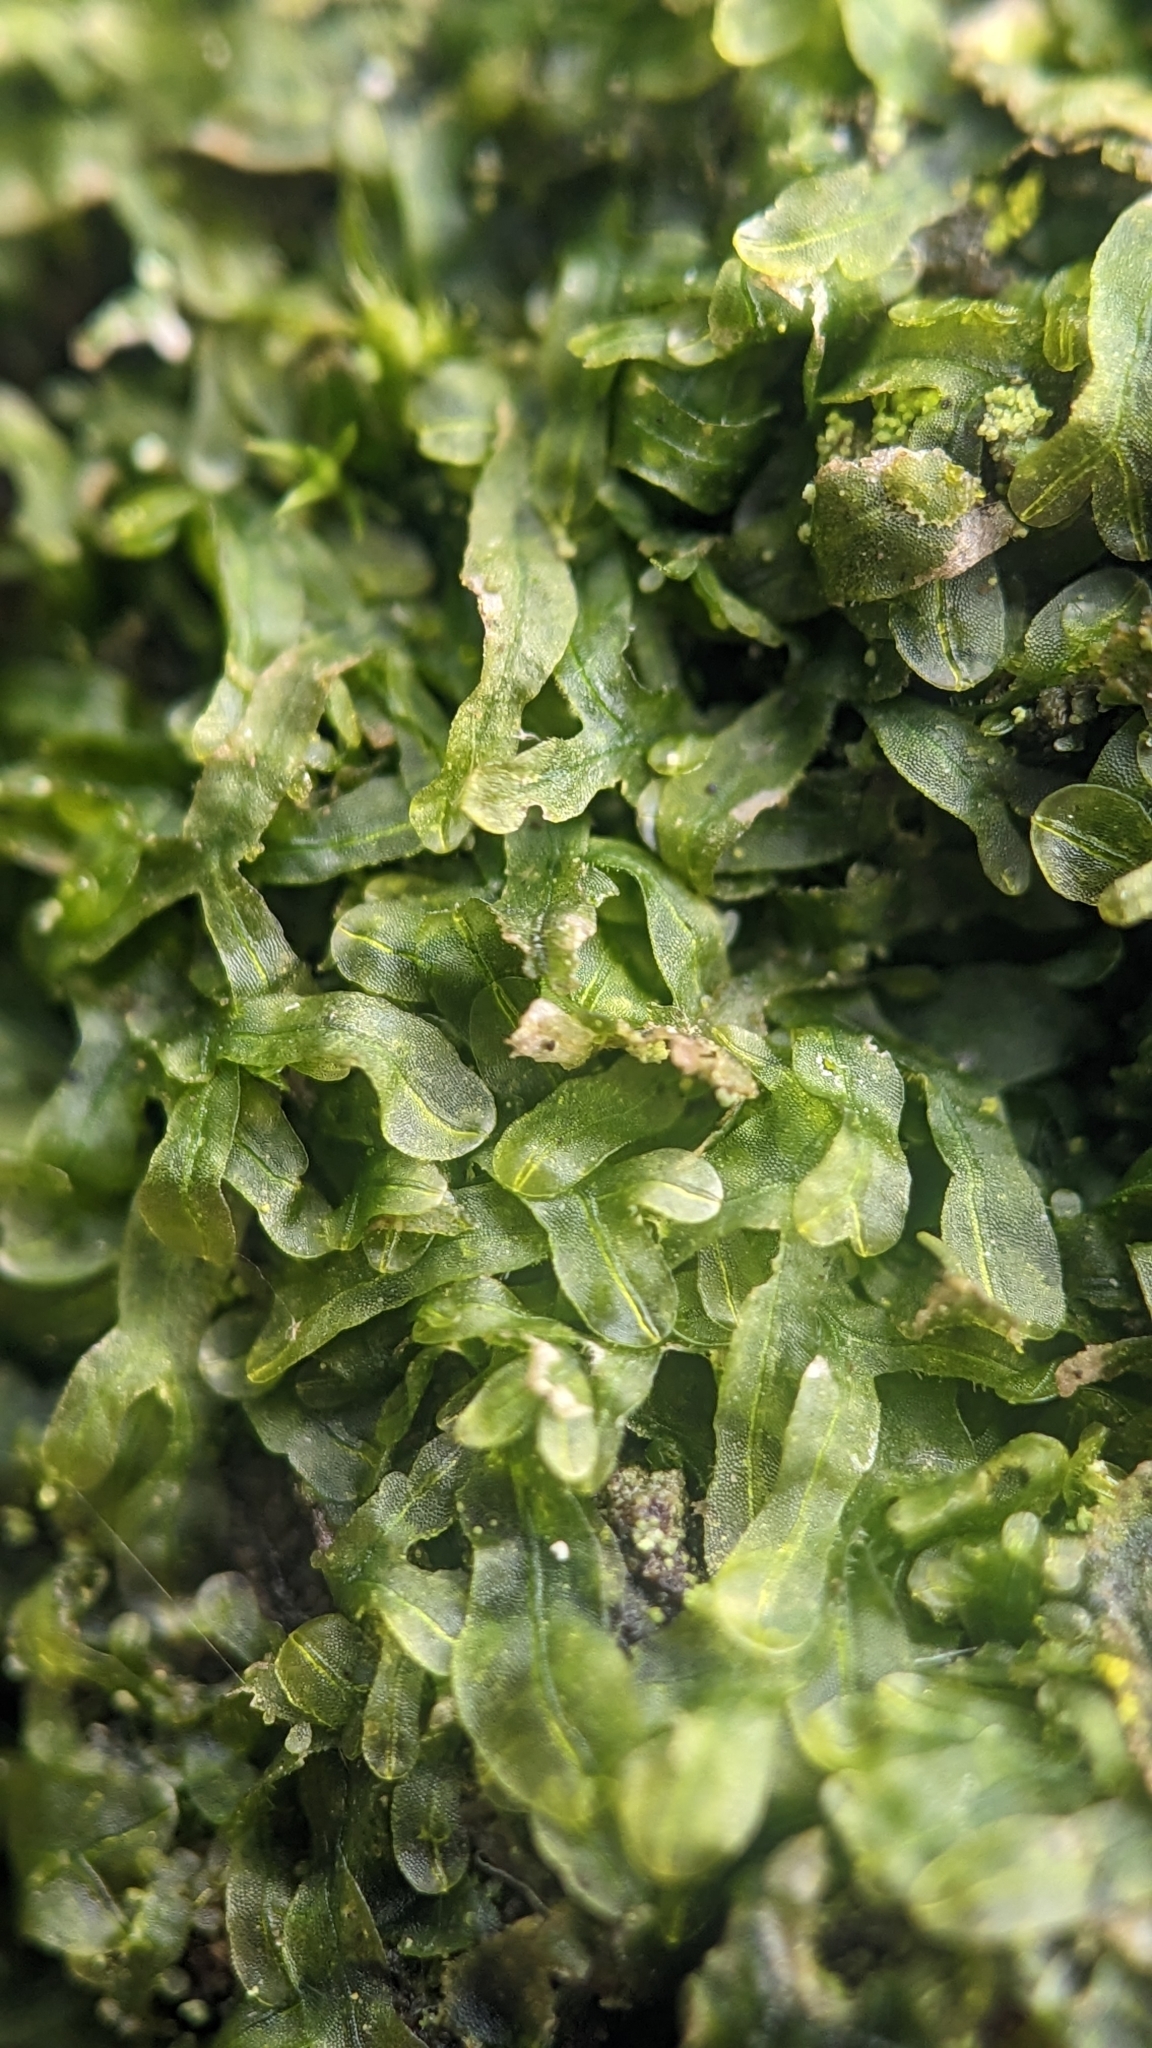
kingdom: Plantae
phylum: Marchantiophyta
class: Jungermanniopsida
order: Metzgeriales
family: Metzgeriaceae
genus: Metzgeria
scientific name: Metzgeria furcata
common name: Forked veilwort
